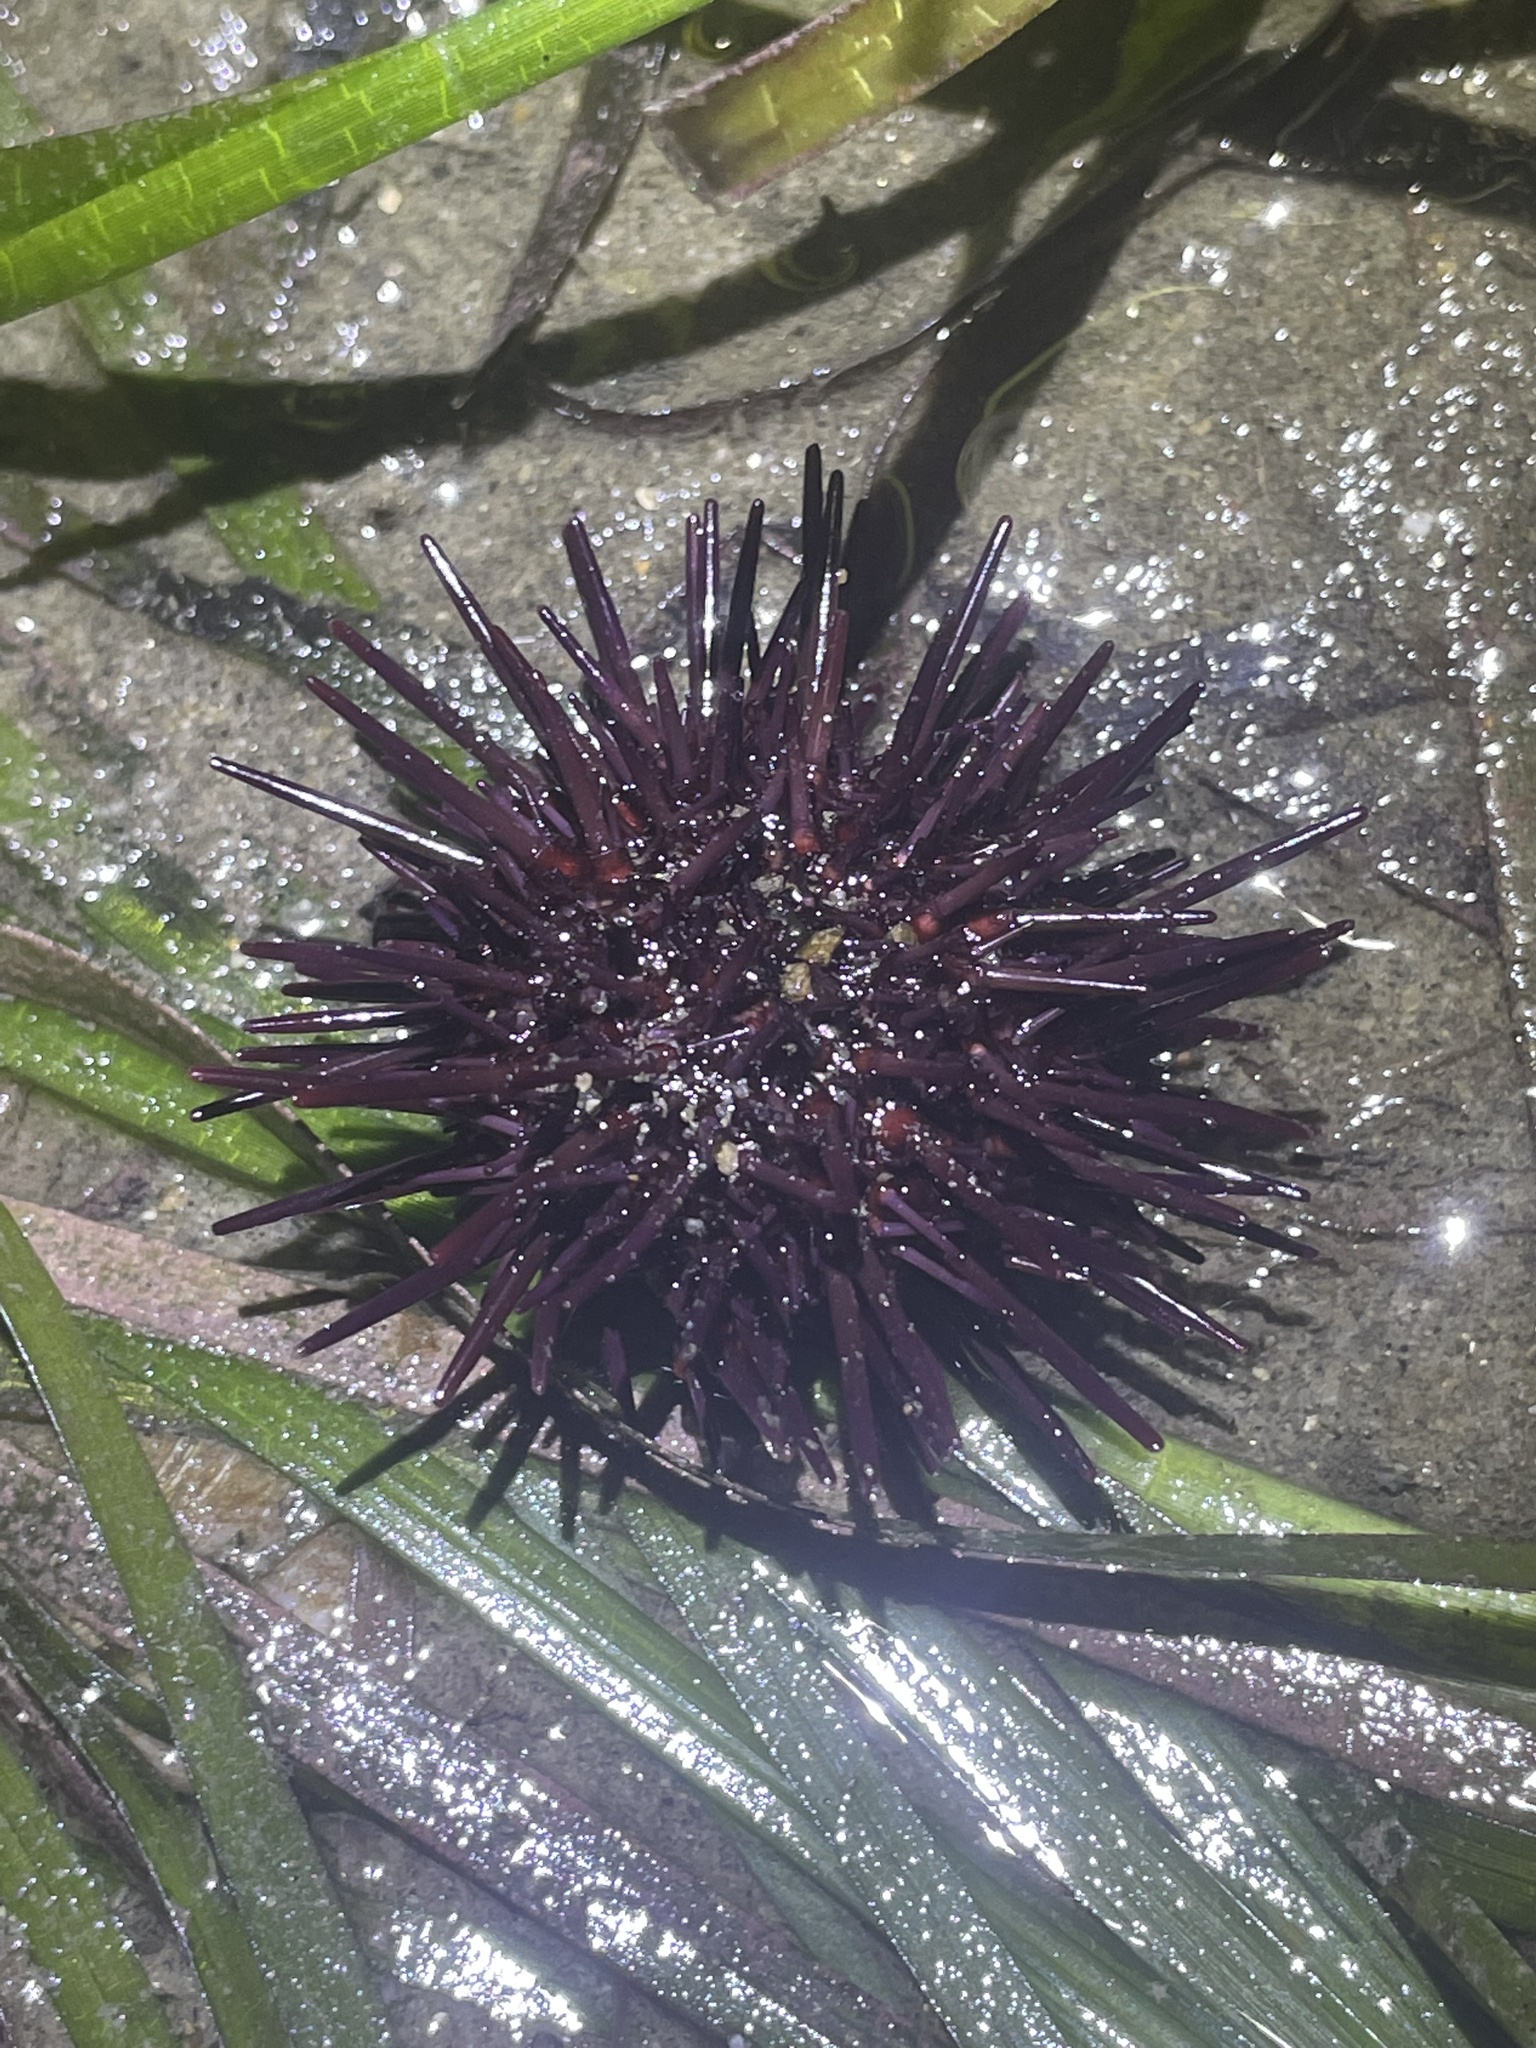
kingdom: Animalia
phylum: Echinodermata
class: Echinoidea
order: Camarodonta
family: Strongylocentrotidae
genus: Mesocentrotus
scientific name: Mesocentrotus franciscanus
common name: Red sea urchin
